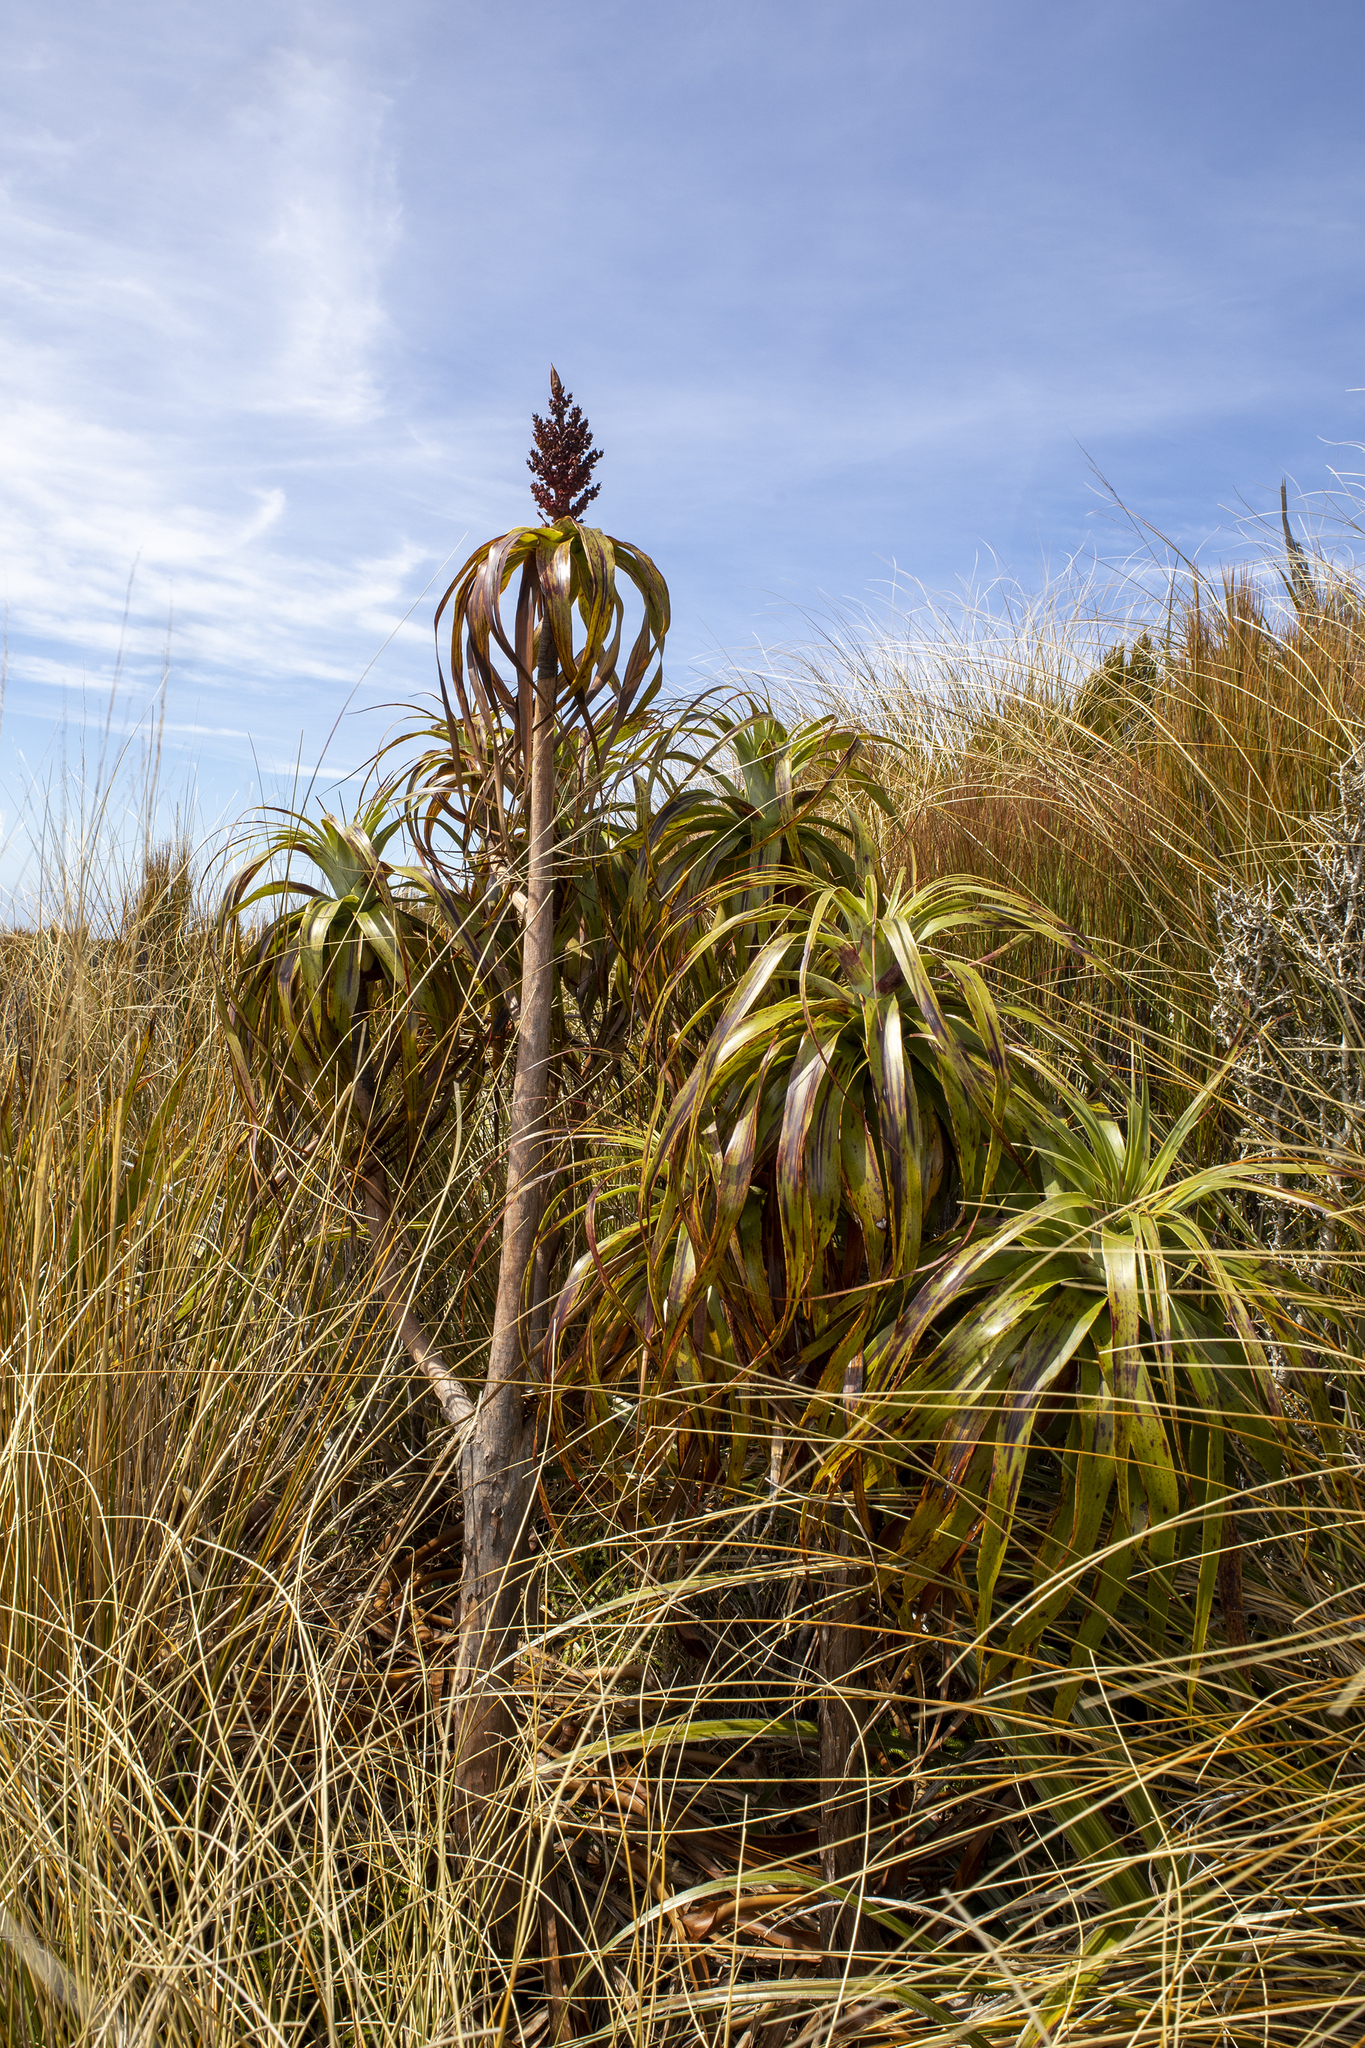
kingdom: Plantae
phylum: Tracheophyta
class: Magnoliopsida
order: Ericales
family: Ericaceae
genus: Dracophyllum
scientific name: Dracophyllum traversii
